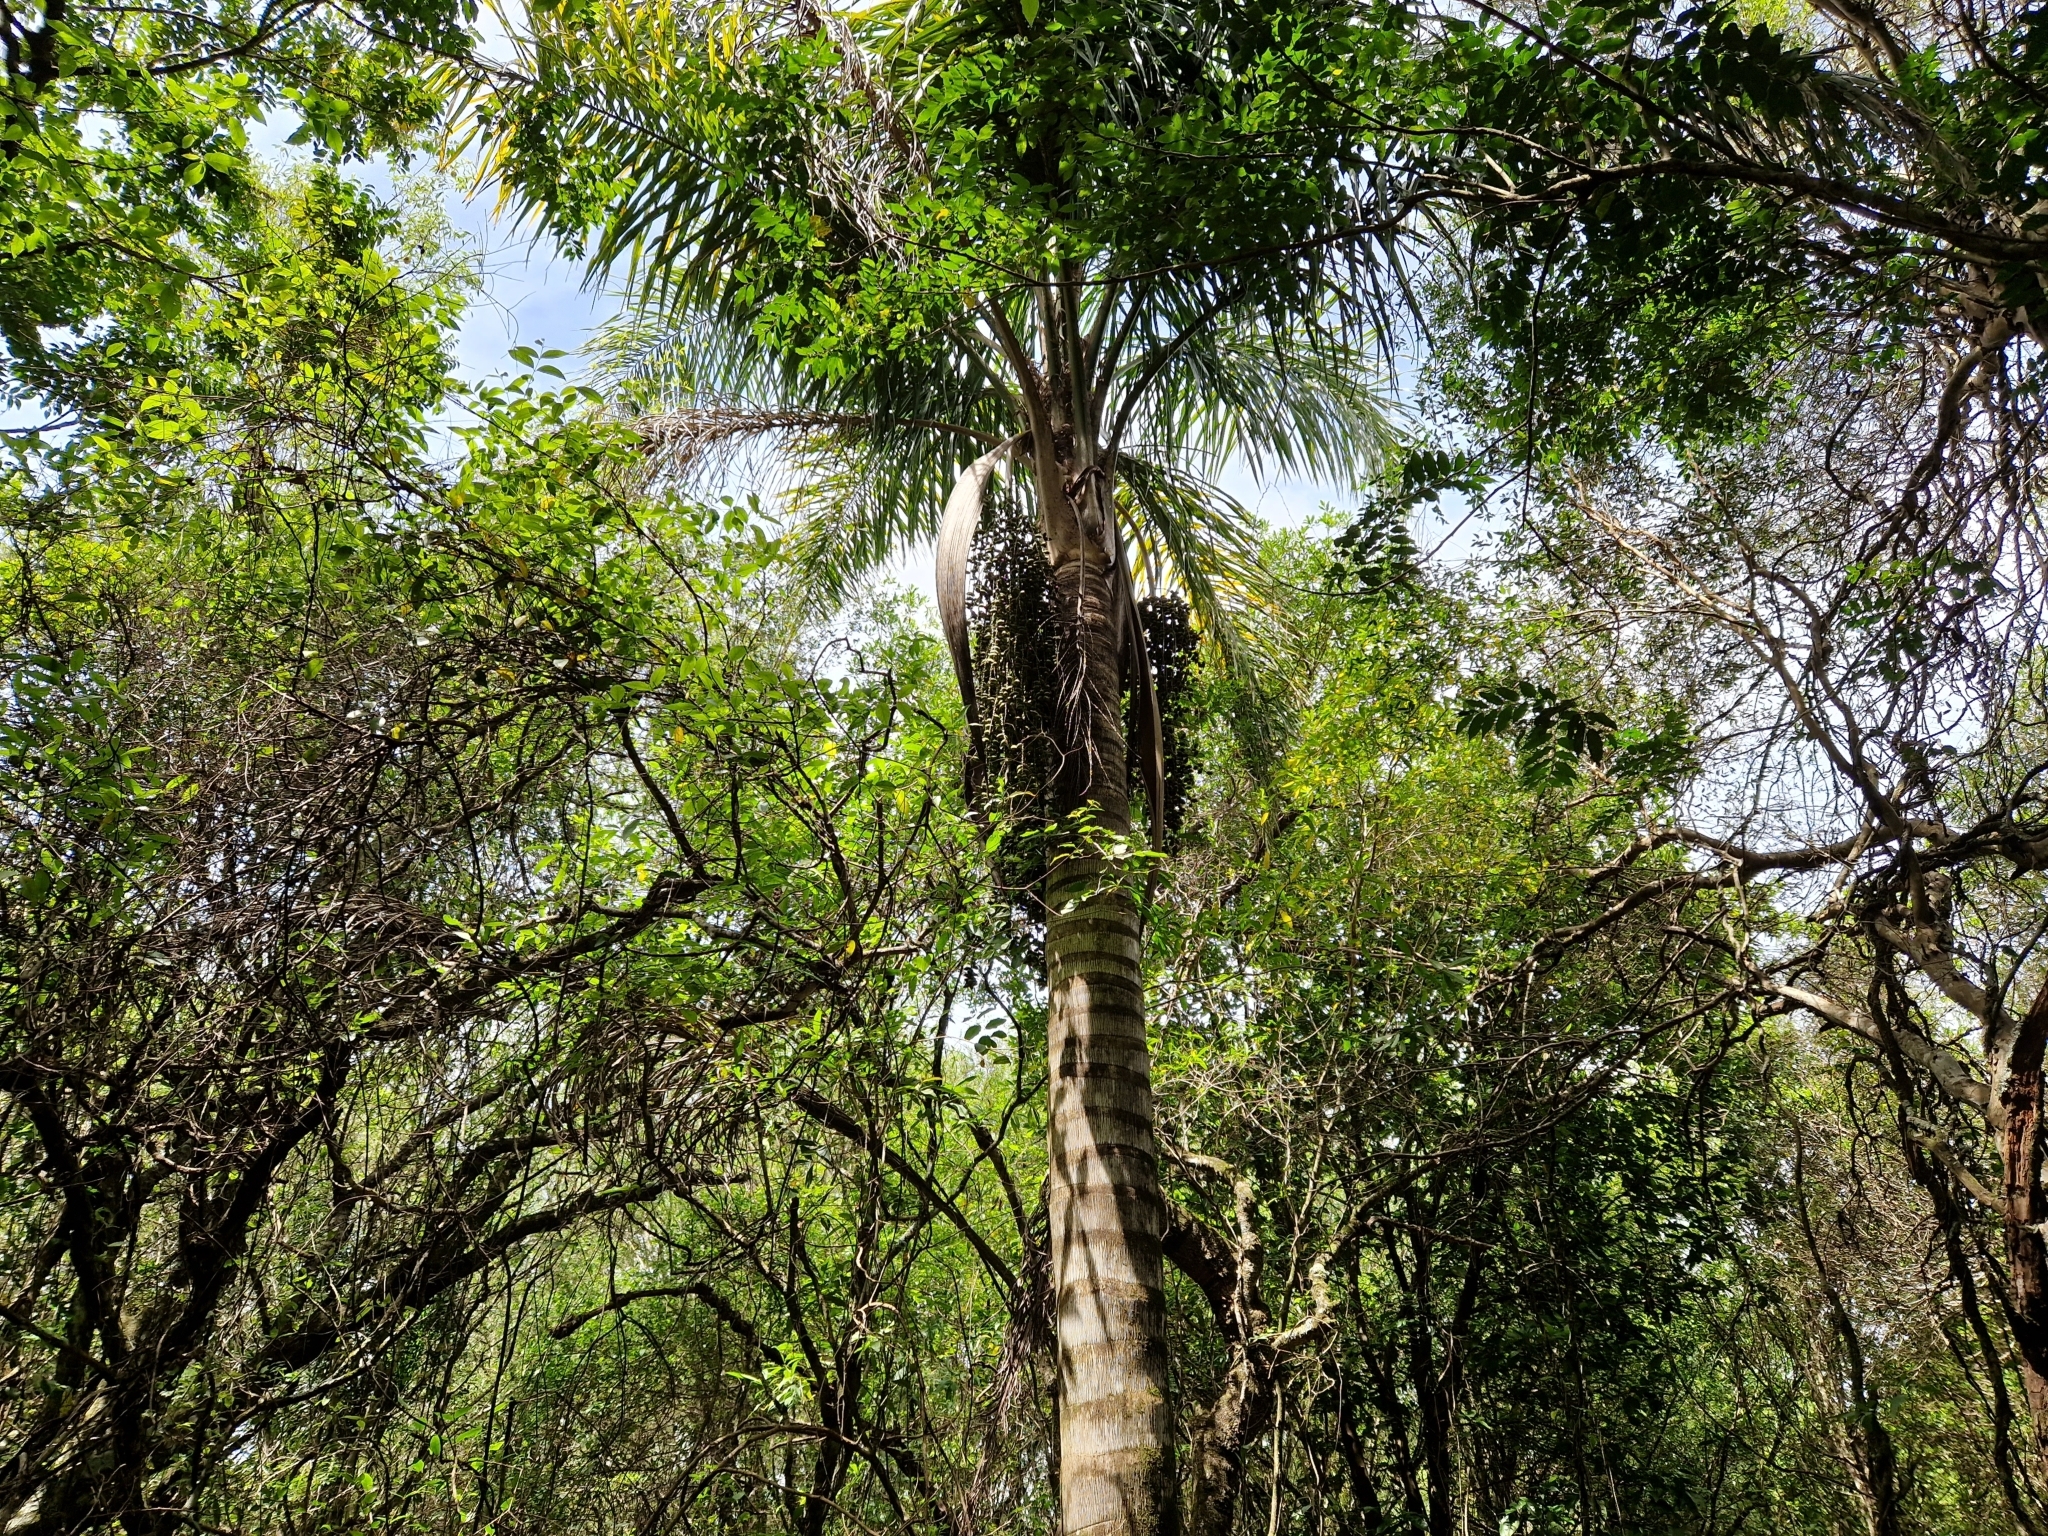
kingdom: Plantae
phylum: Tracheophyta
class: Liliopsida
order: Arecales
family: Arecaceae
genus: Syagrus
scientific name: Syagrus romanzoffiana
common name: Queen palm
